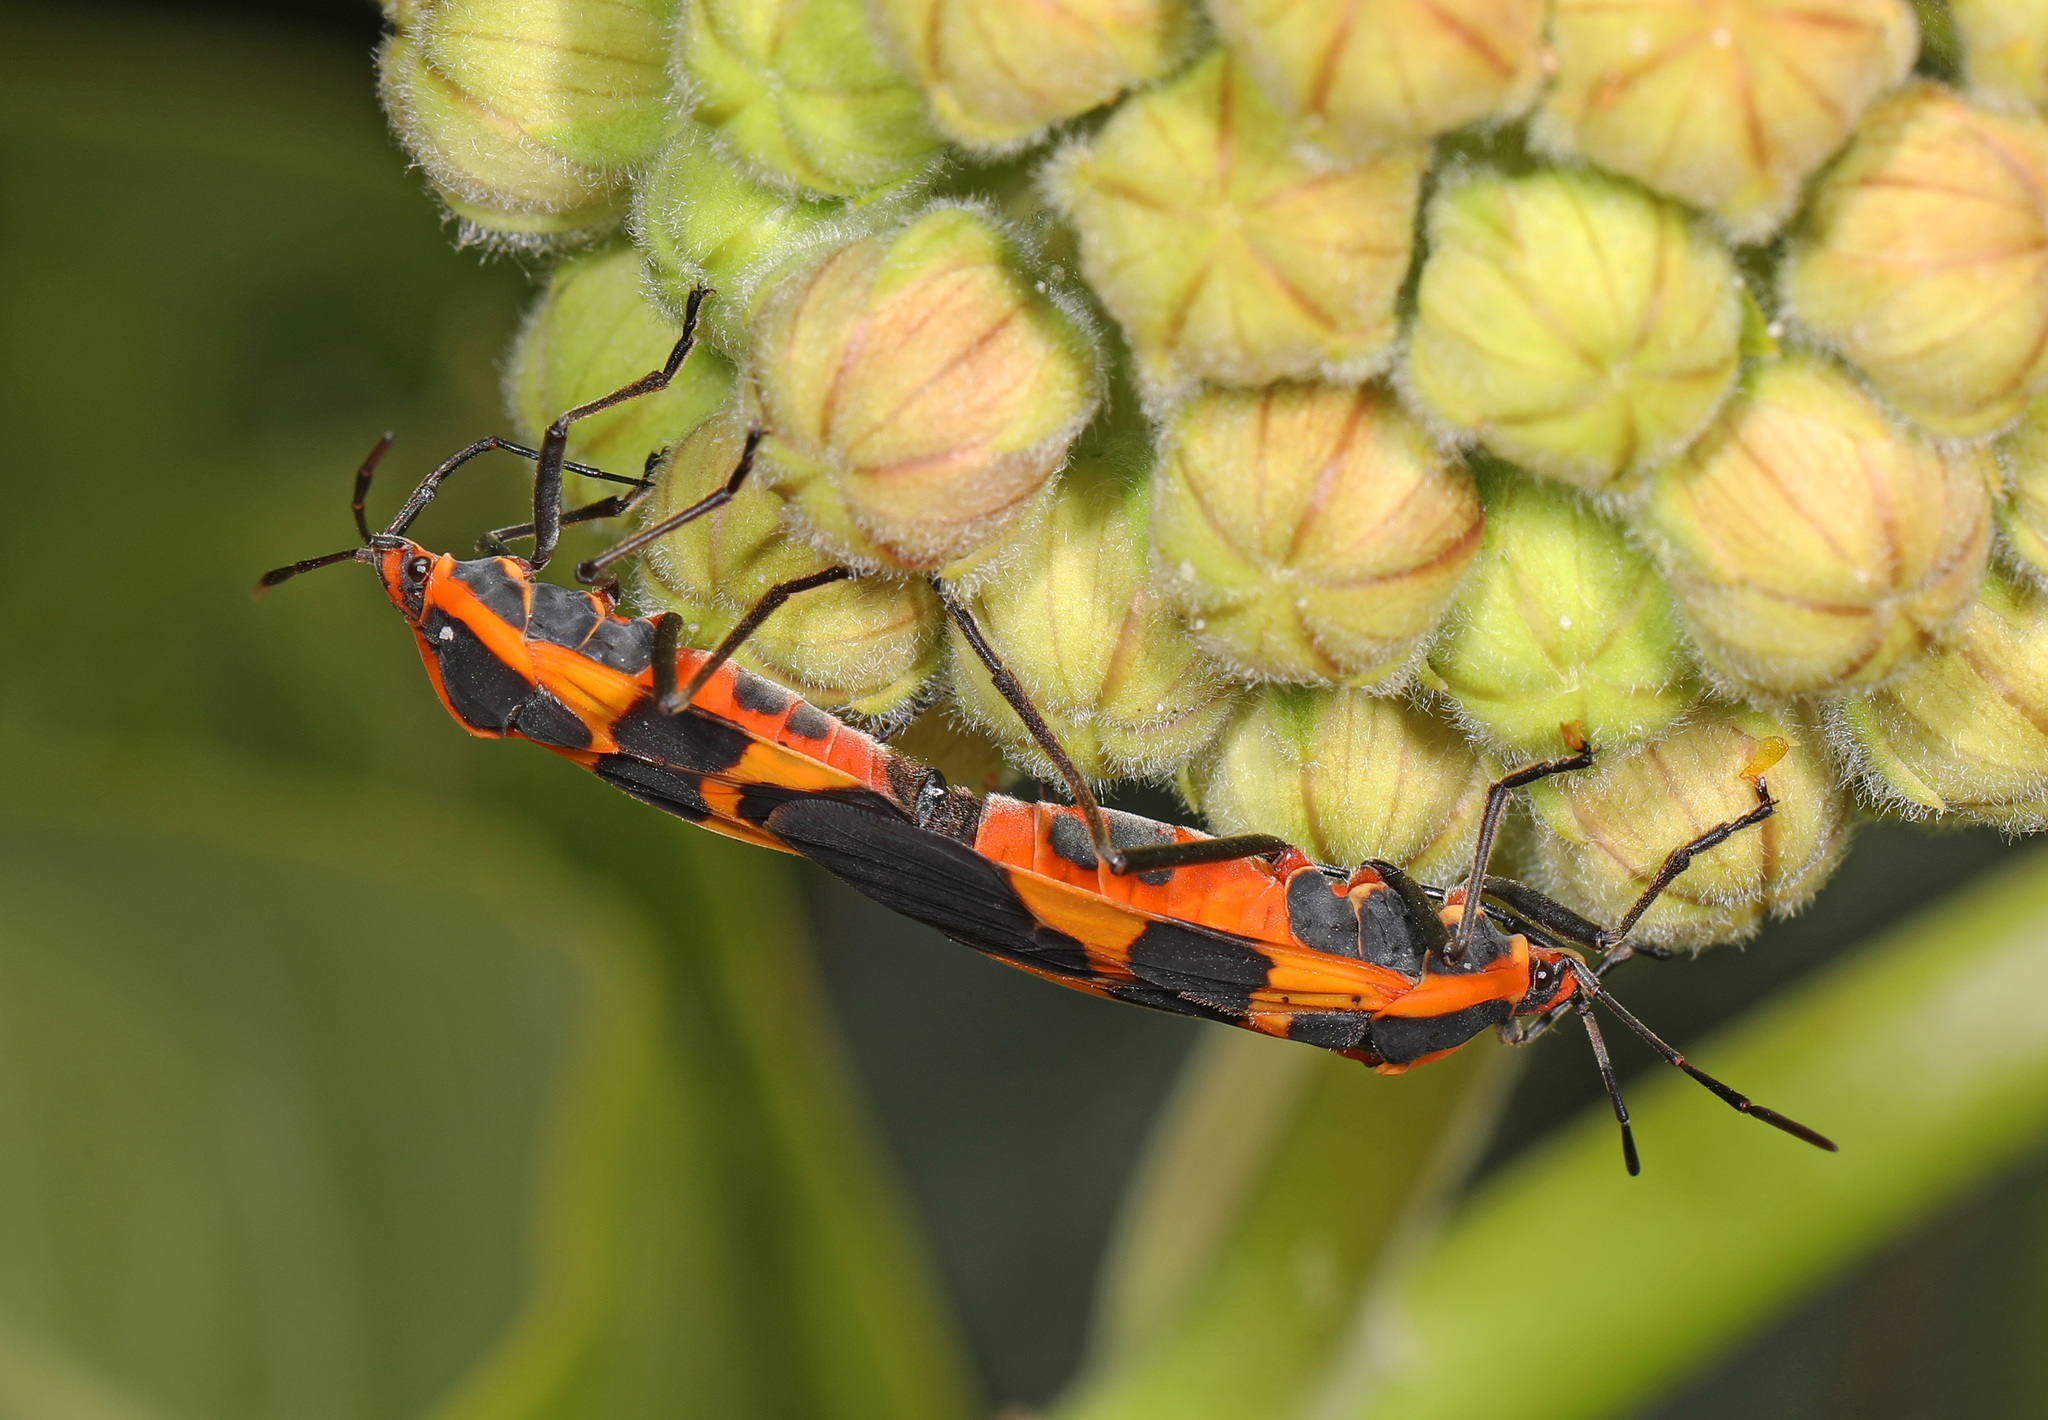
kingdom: Animalia
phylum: Arthropoda
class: Insecta
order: Hemiptera
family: Lygaeidae
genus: Oncopeltus
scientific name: Oncopeltus fasciatus
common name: Large milkweed bug
